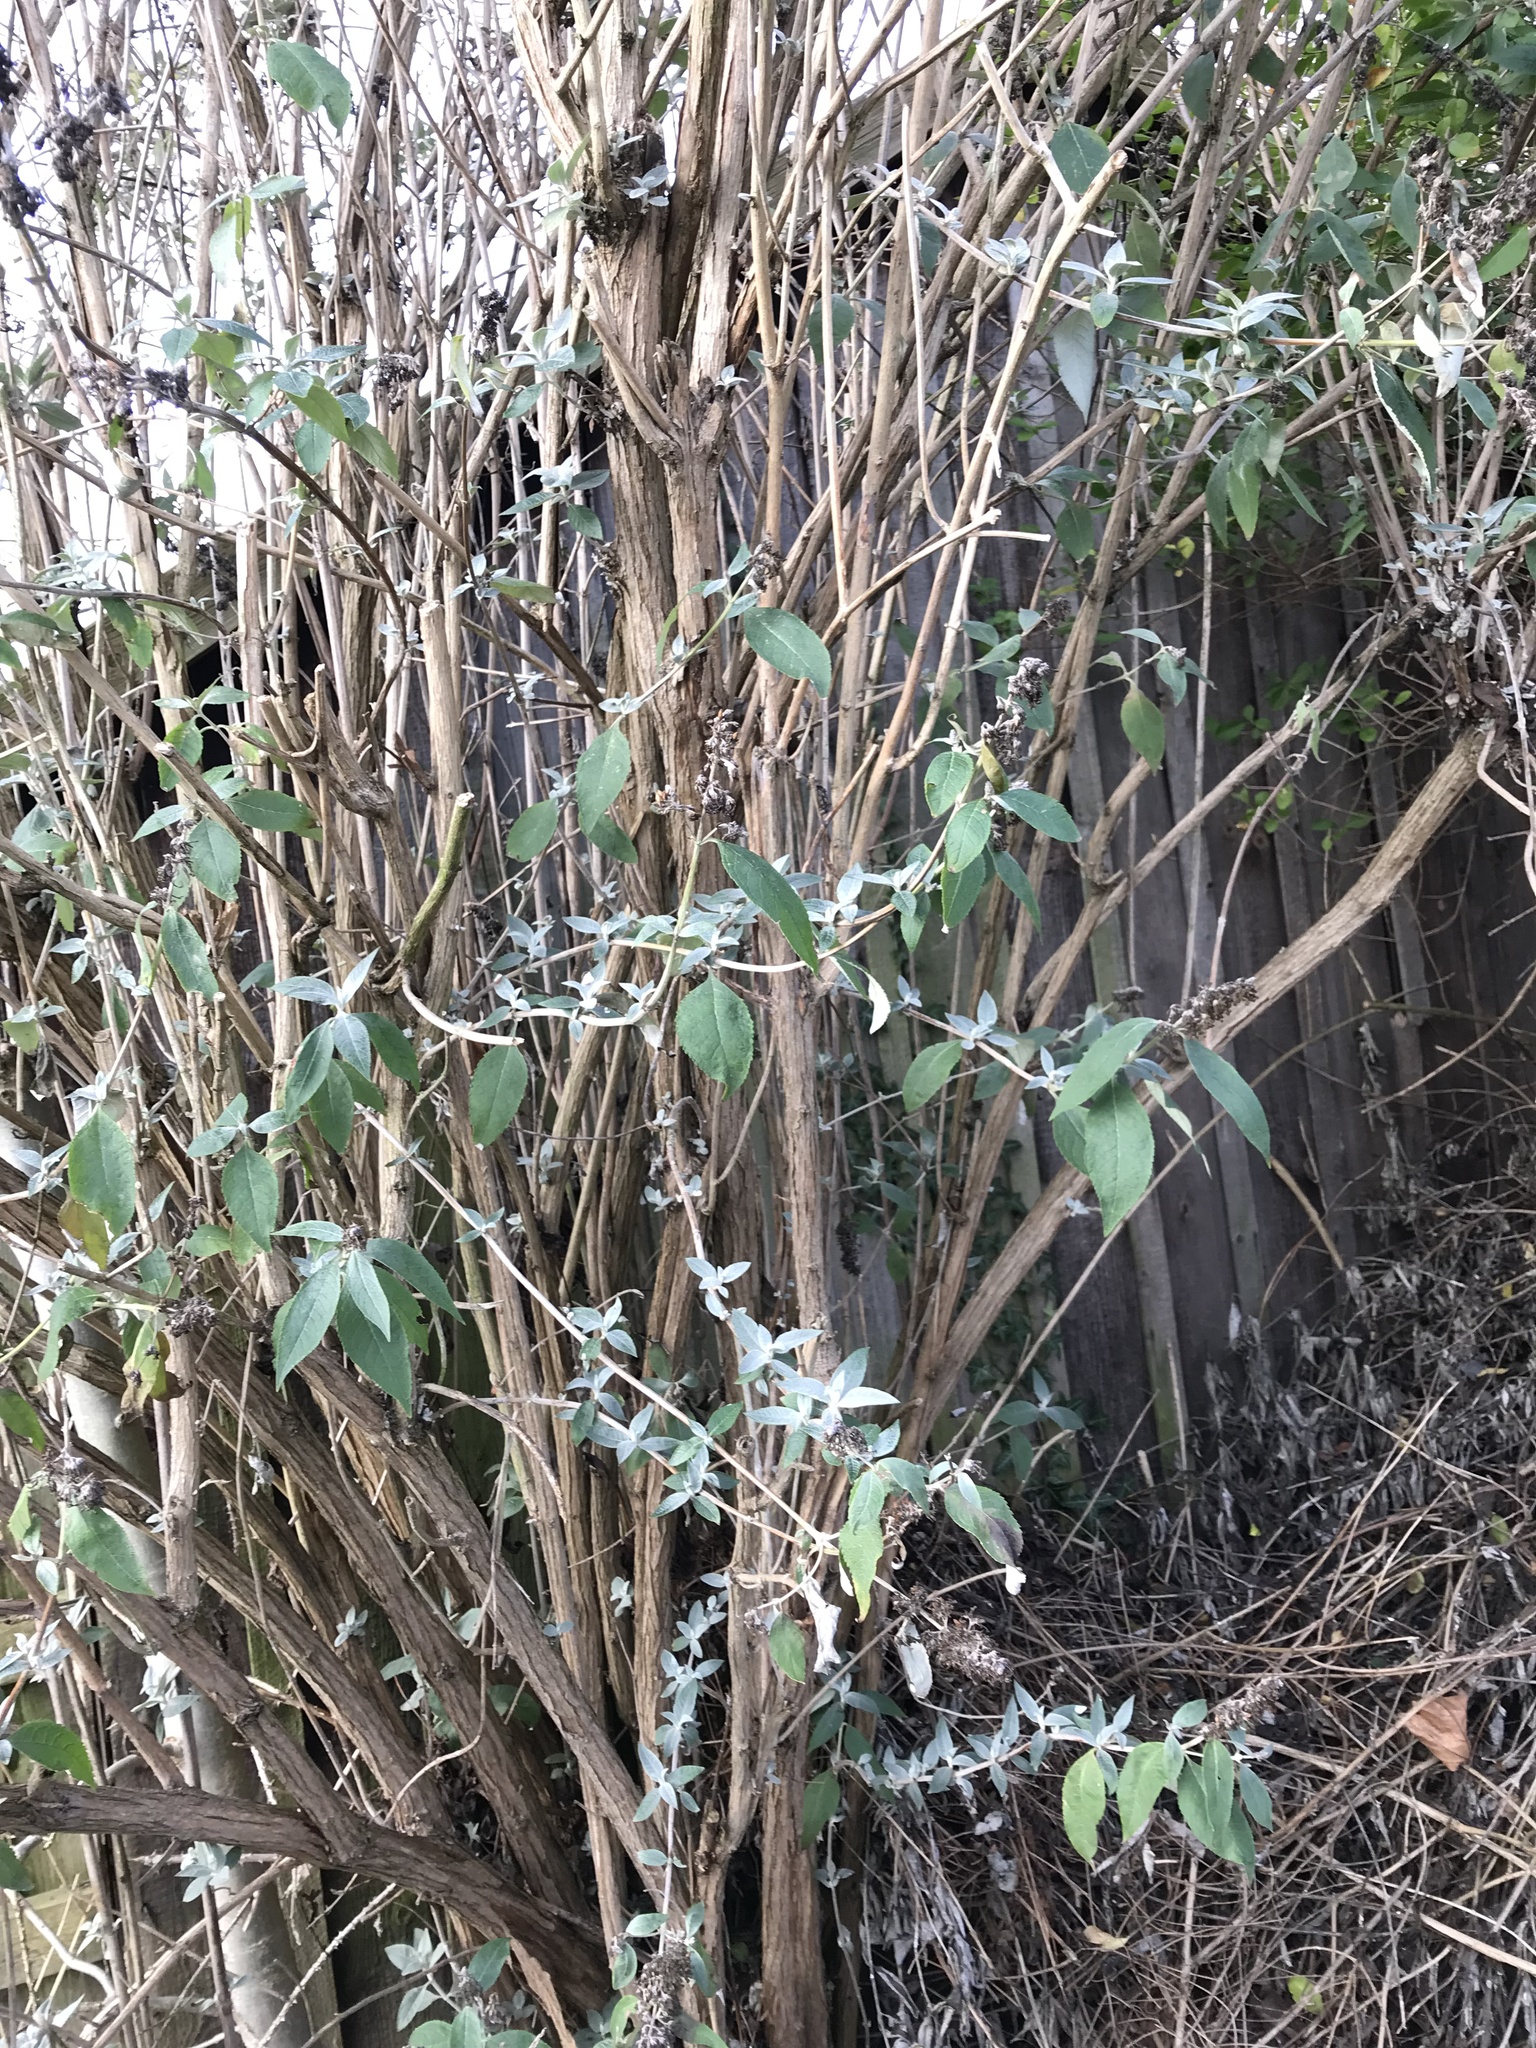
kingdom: Plantae
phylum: Tracheophyta
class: Magnoliopsida
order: Lamiales
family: Scrophulariaceae
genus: Buddleja
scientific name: Buddleja davidii
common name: Butterfly-bush
